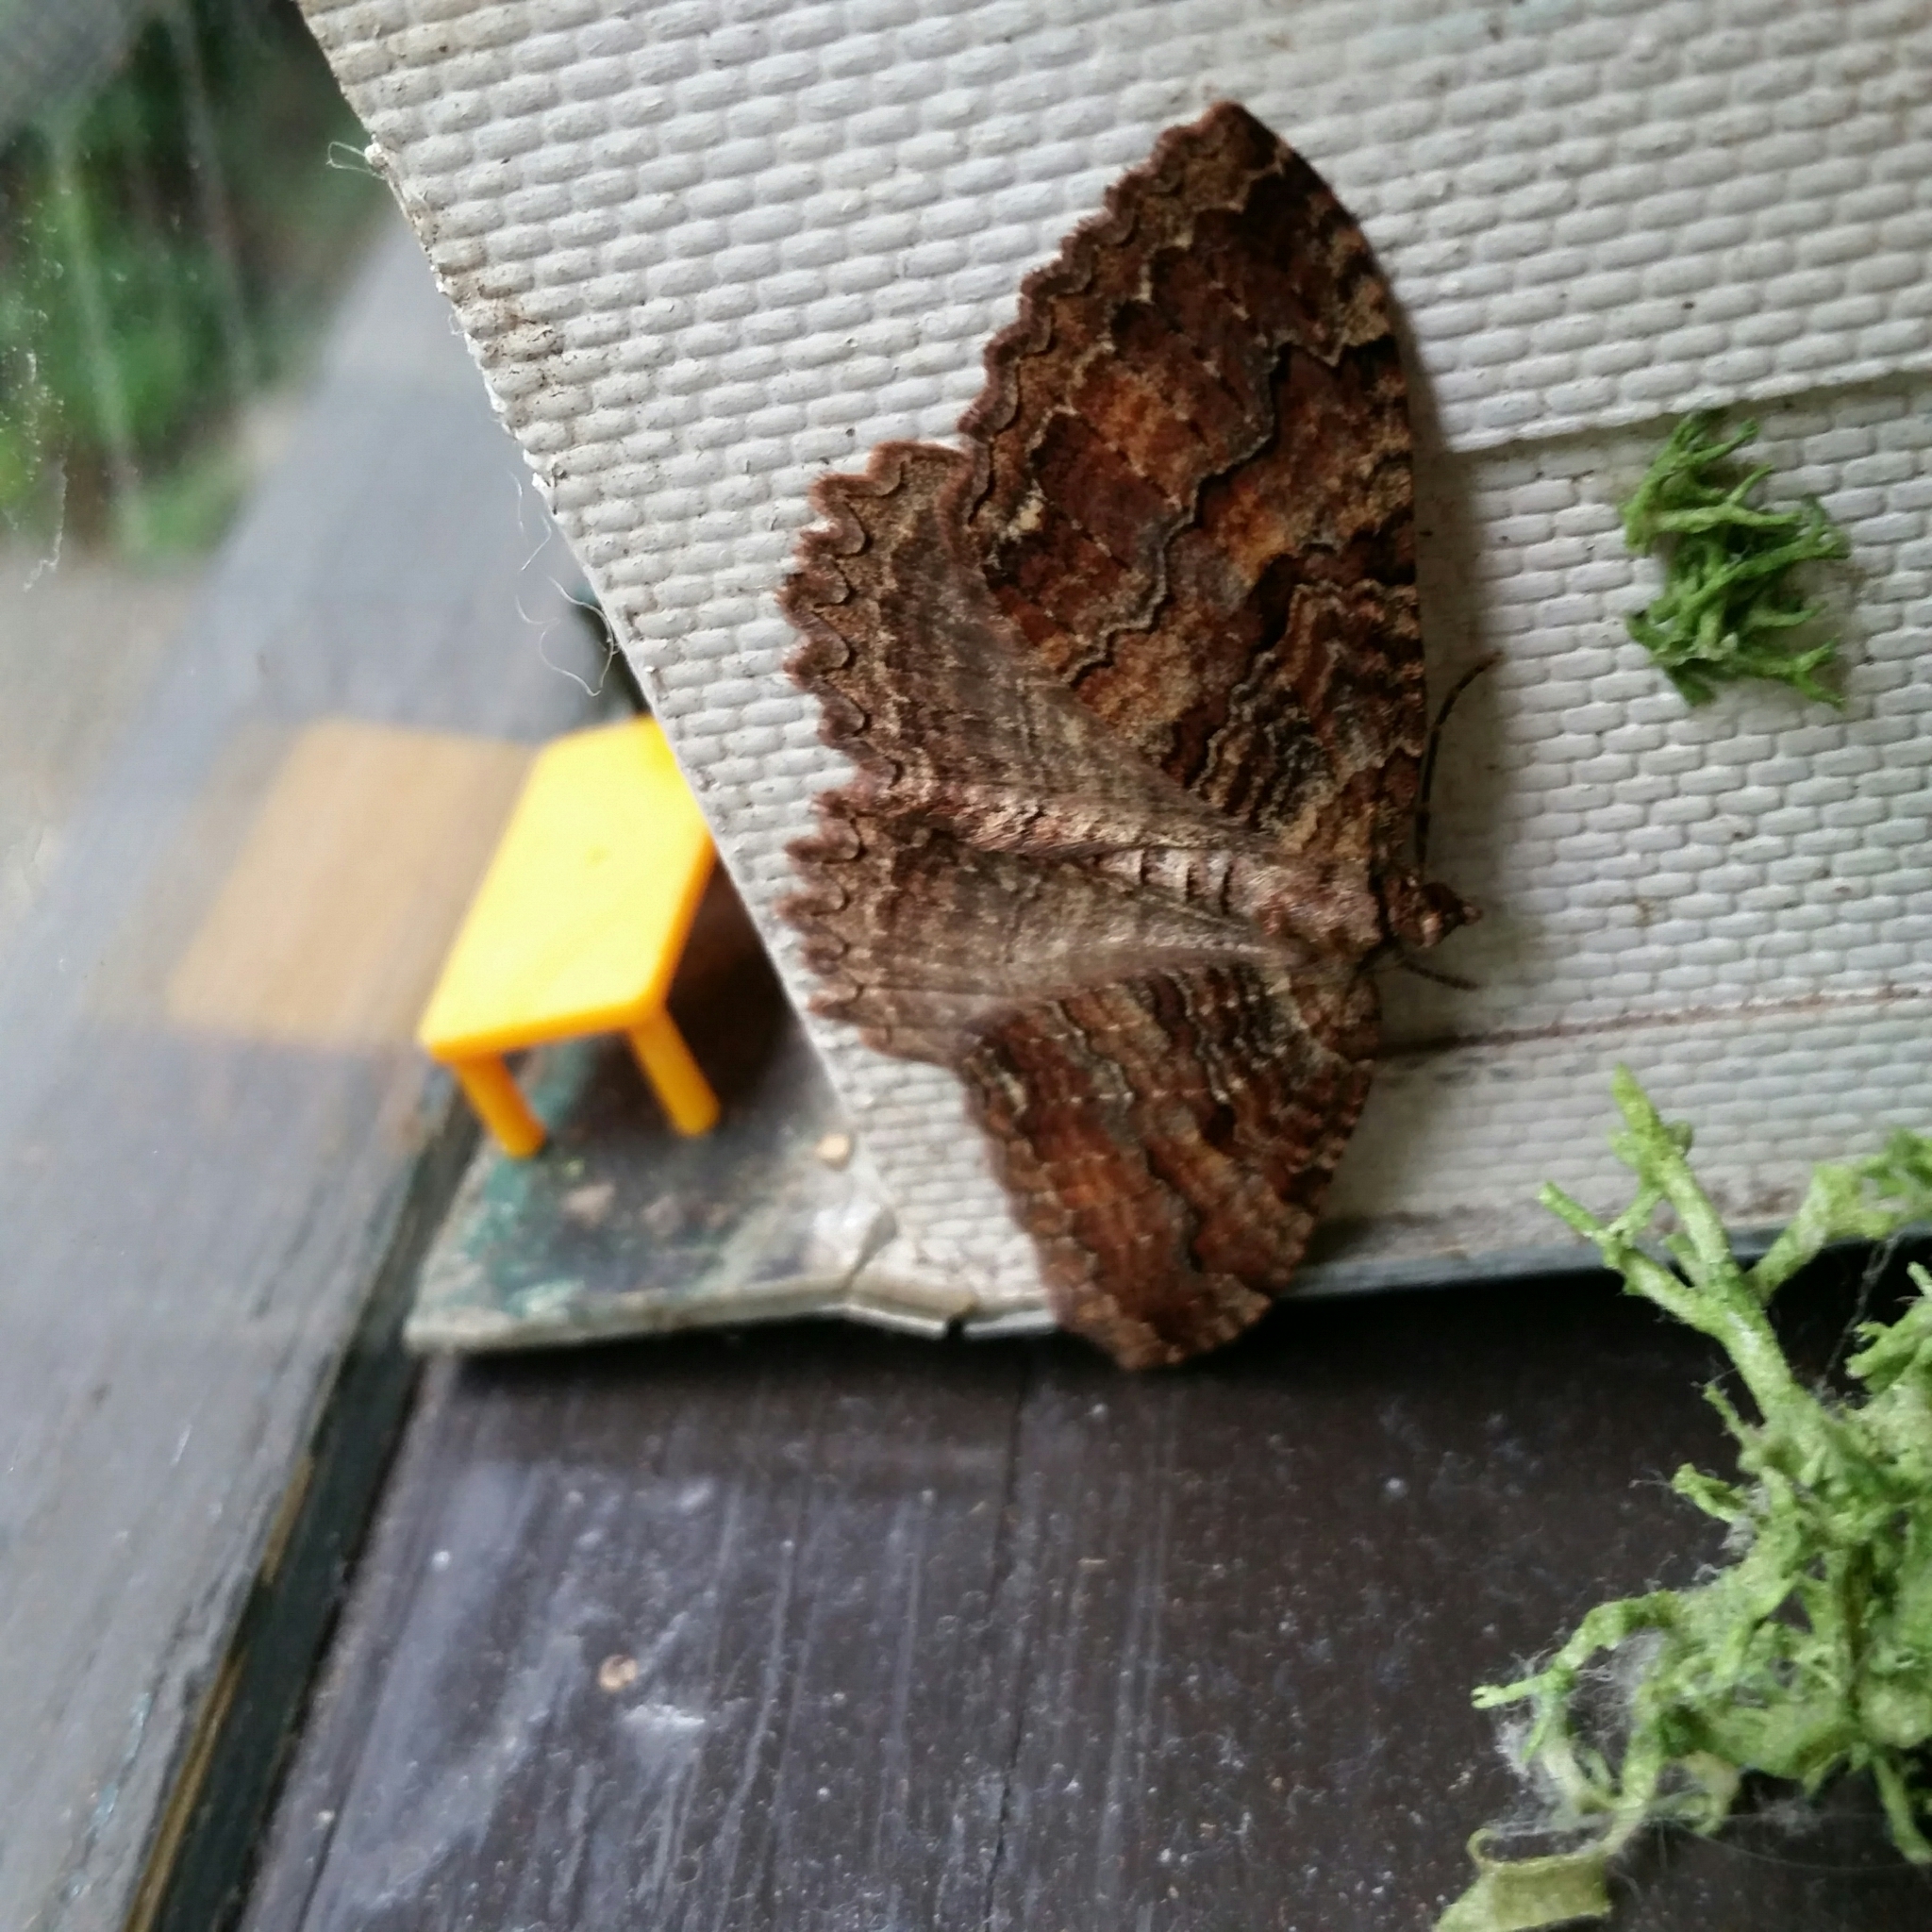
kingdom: Animalia
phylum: Arthropoda
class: Insecta
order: Lepidoptera
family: Geometridae
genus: Triphosa
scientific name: Triphosa haesitata
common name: Tissue moth
